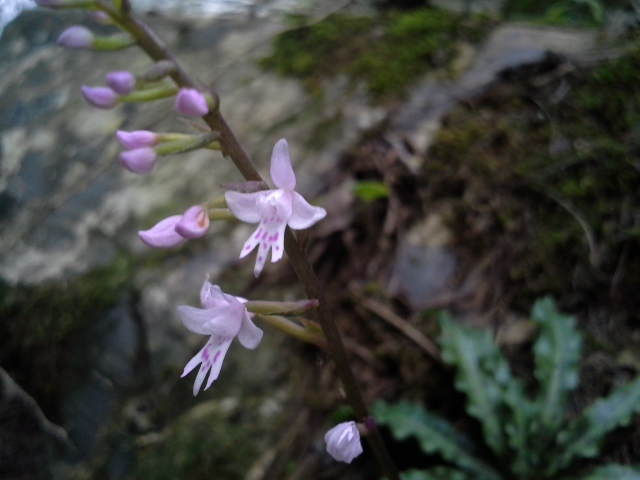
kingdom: Plantae
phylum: Tracheophyta
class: Liliopsida
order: Asparagales
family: Orchidaceae
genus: Stenoglottis
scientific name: Stenoglottis fimbriata
